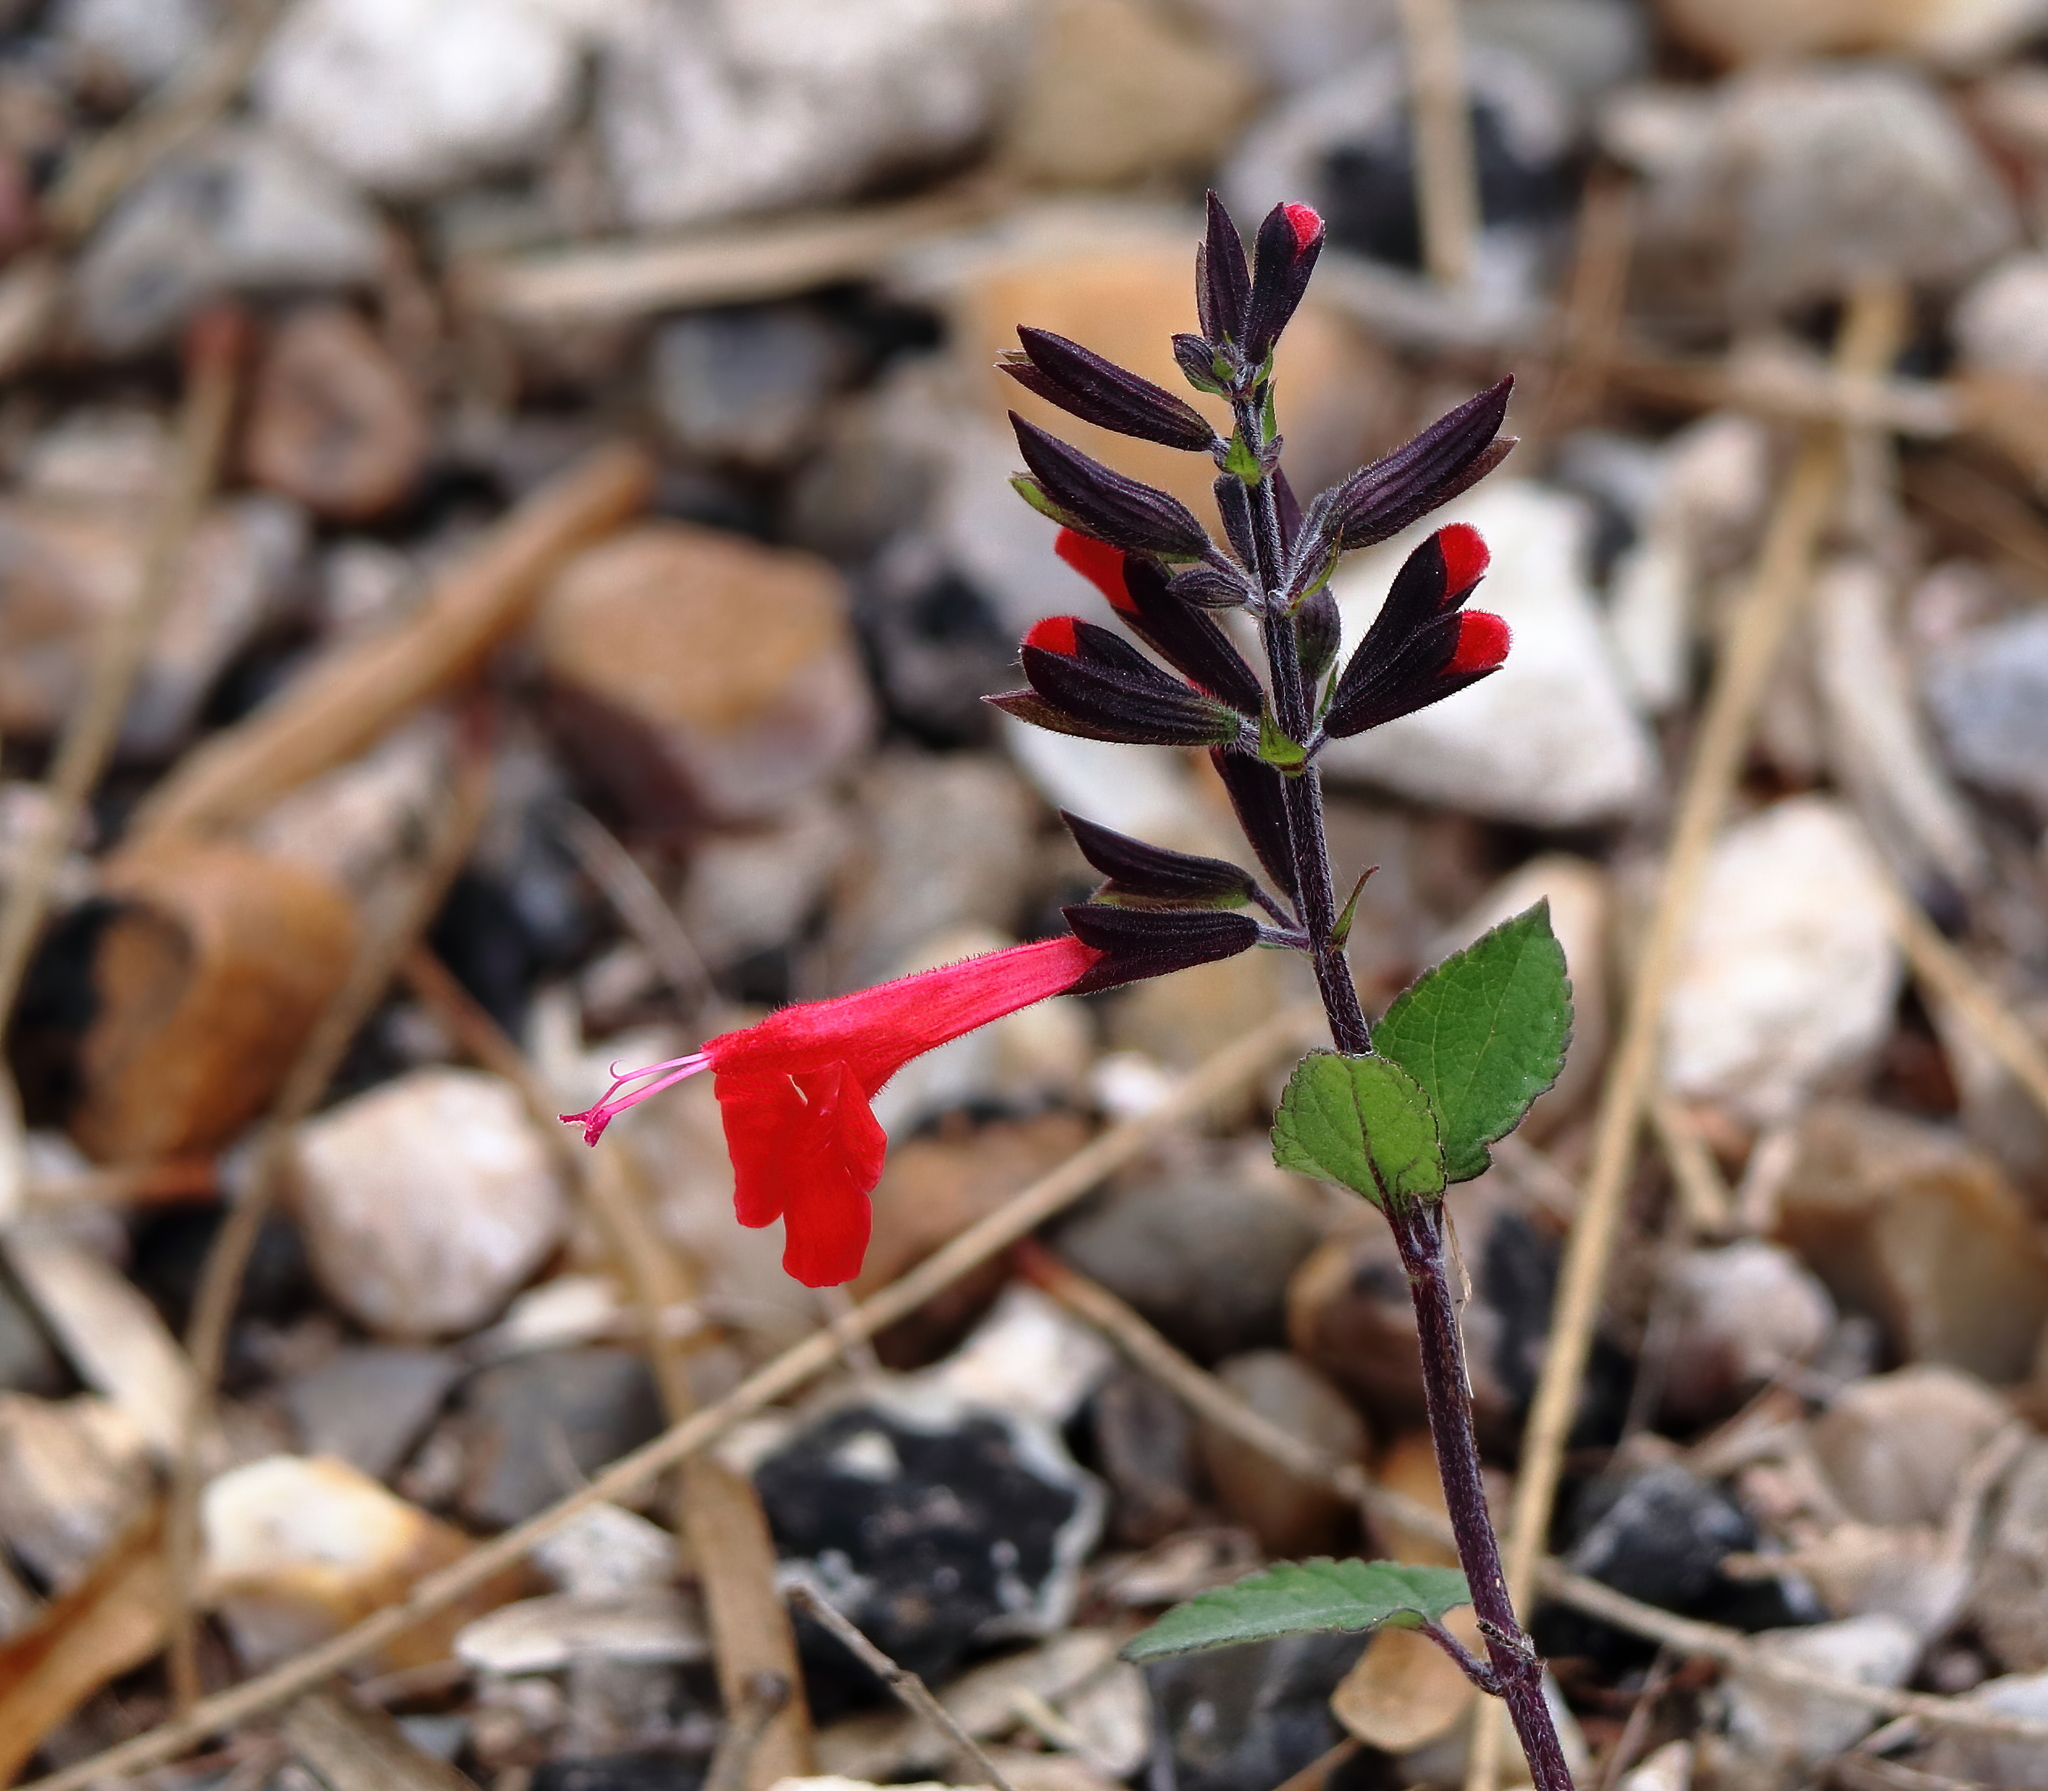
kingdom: Plantae
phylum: Tracheophyta
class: Magnoliopsida
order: Lamiales
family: Lamiaceae
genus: Salvia
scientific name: Salvia coccinea
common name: Blood sage
